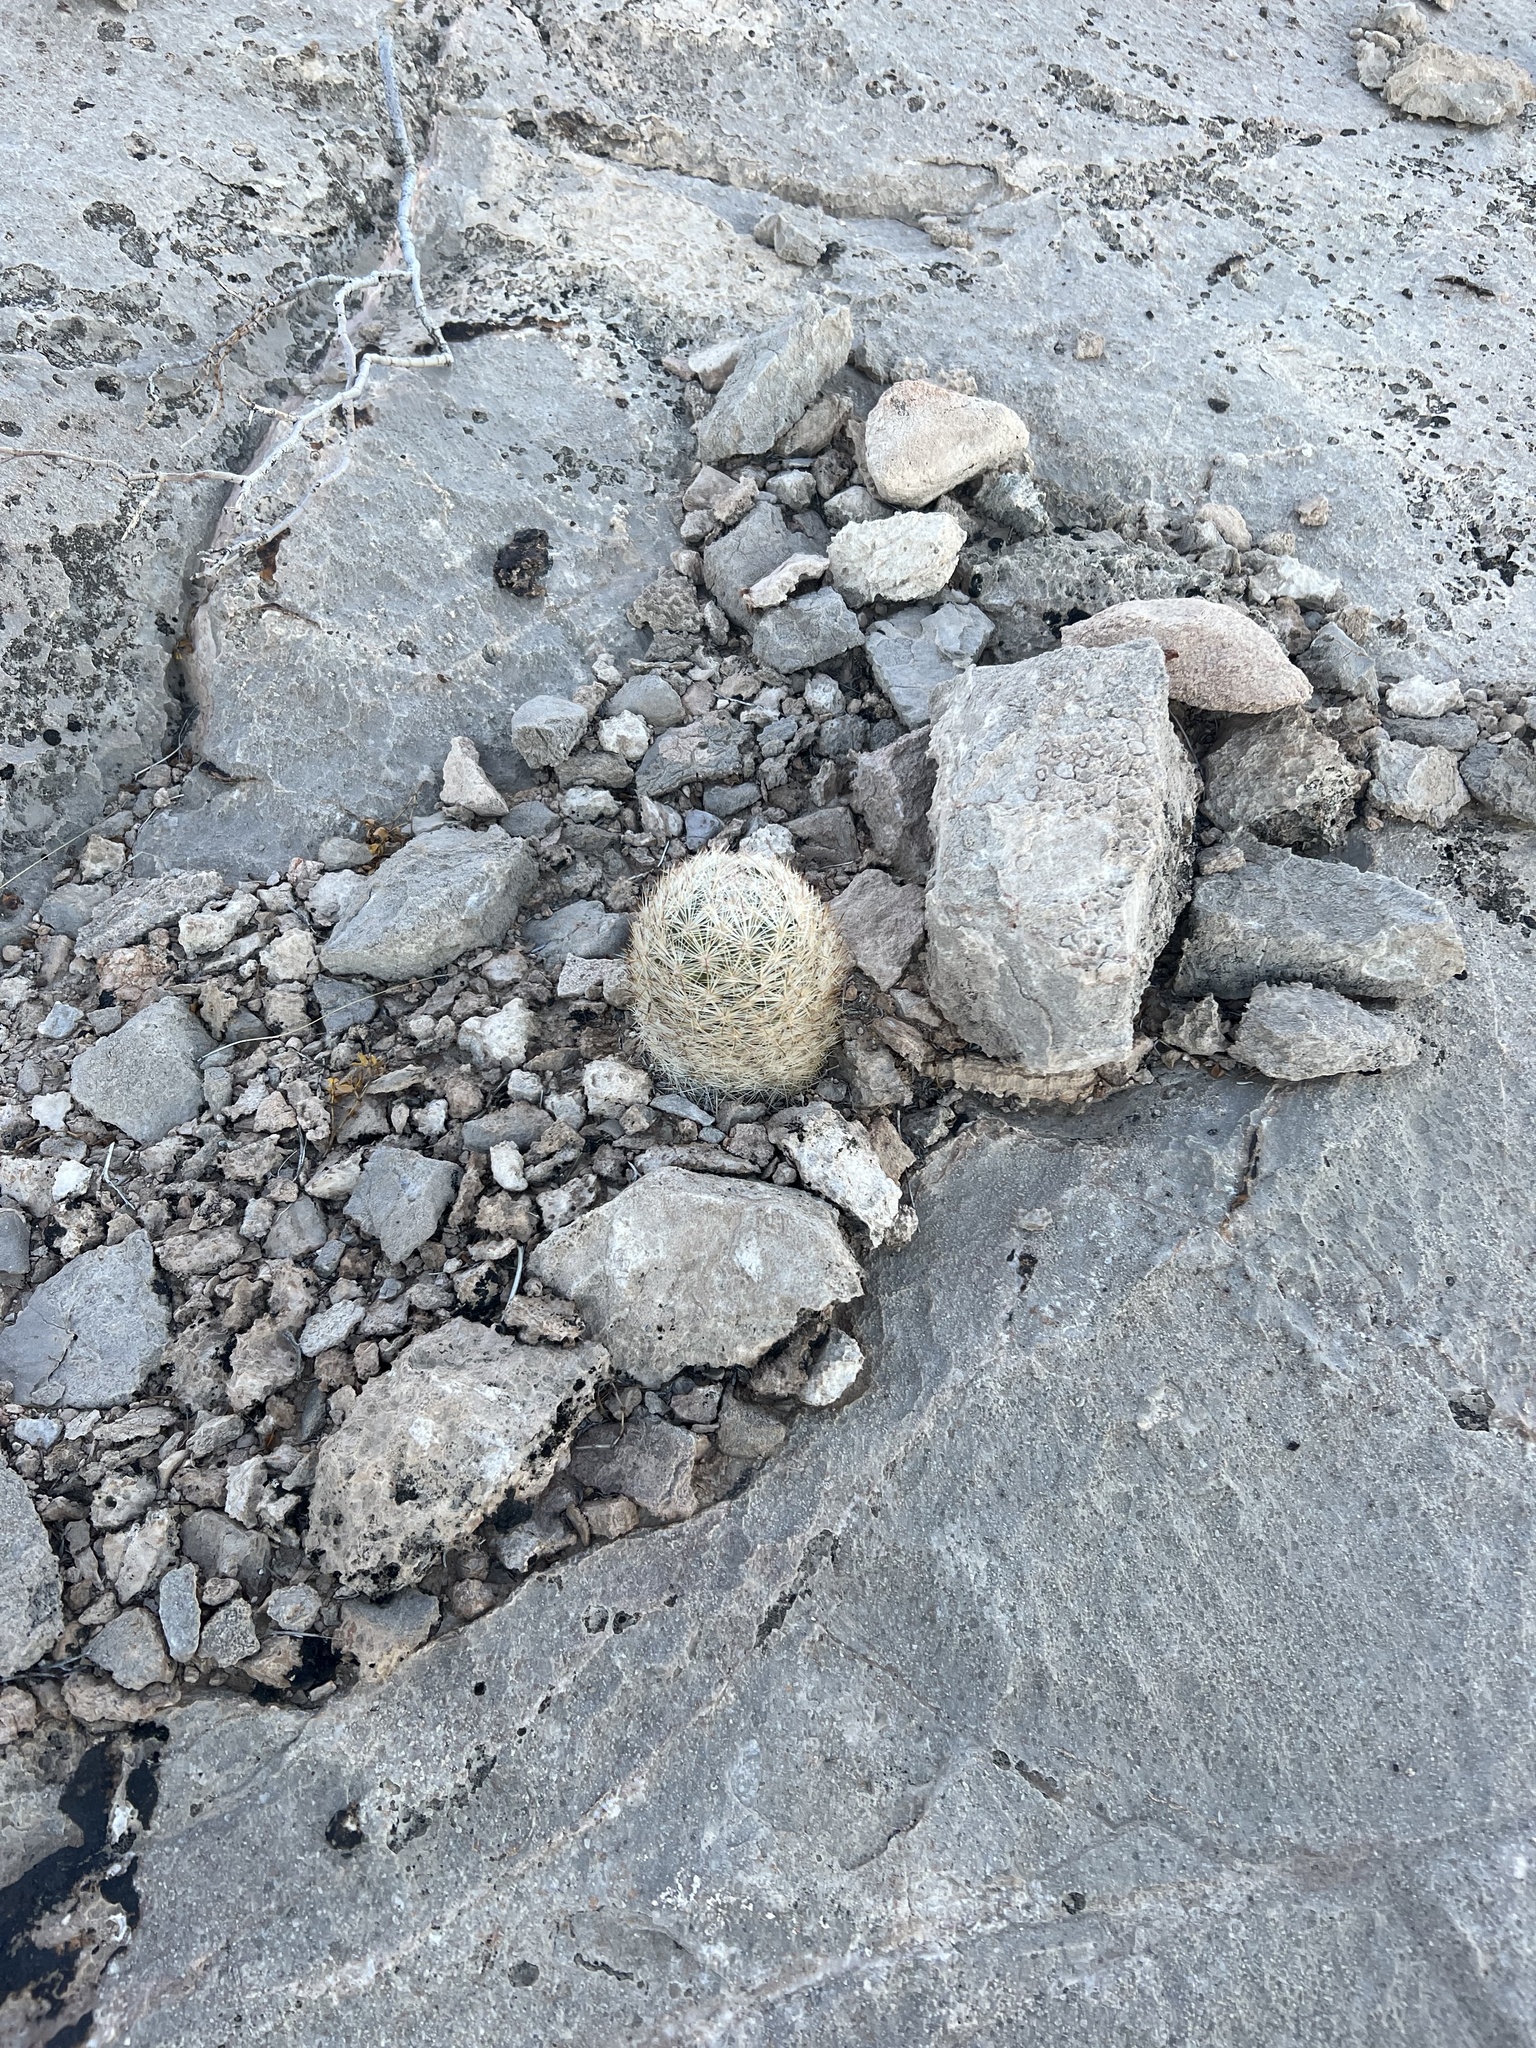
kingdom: Plantae
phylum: Tracheophyta
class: Magnoliopsida
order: Caryophyllales
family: Cactaceae
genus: Pelecyphora
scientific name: Pelecyphora dasyacantha
